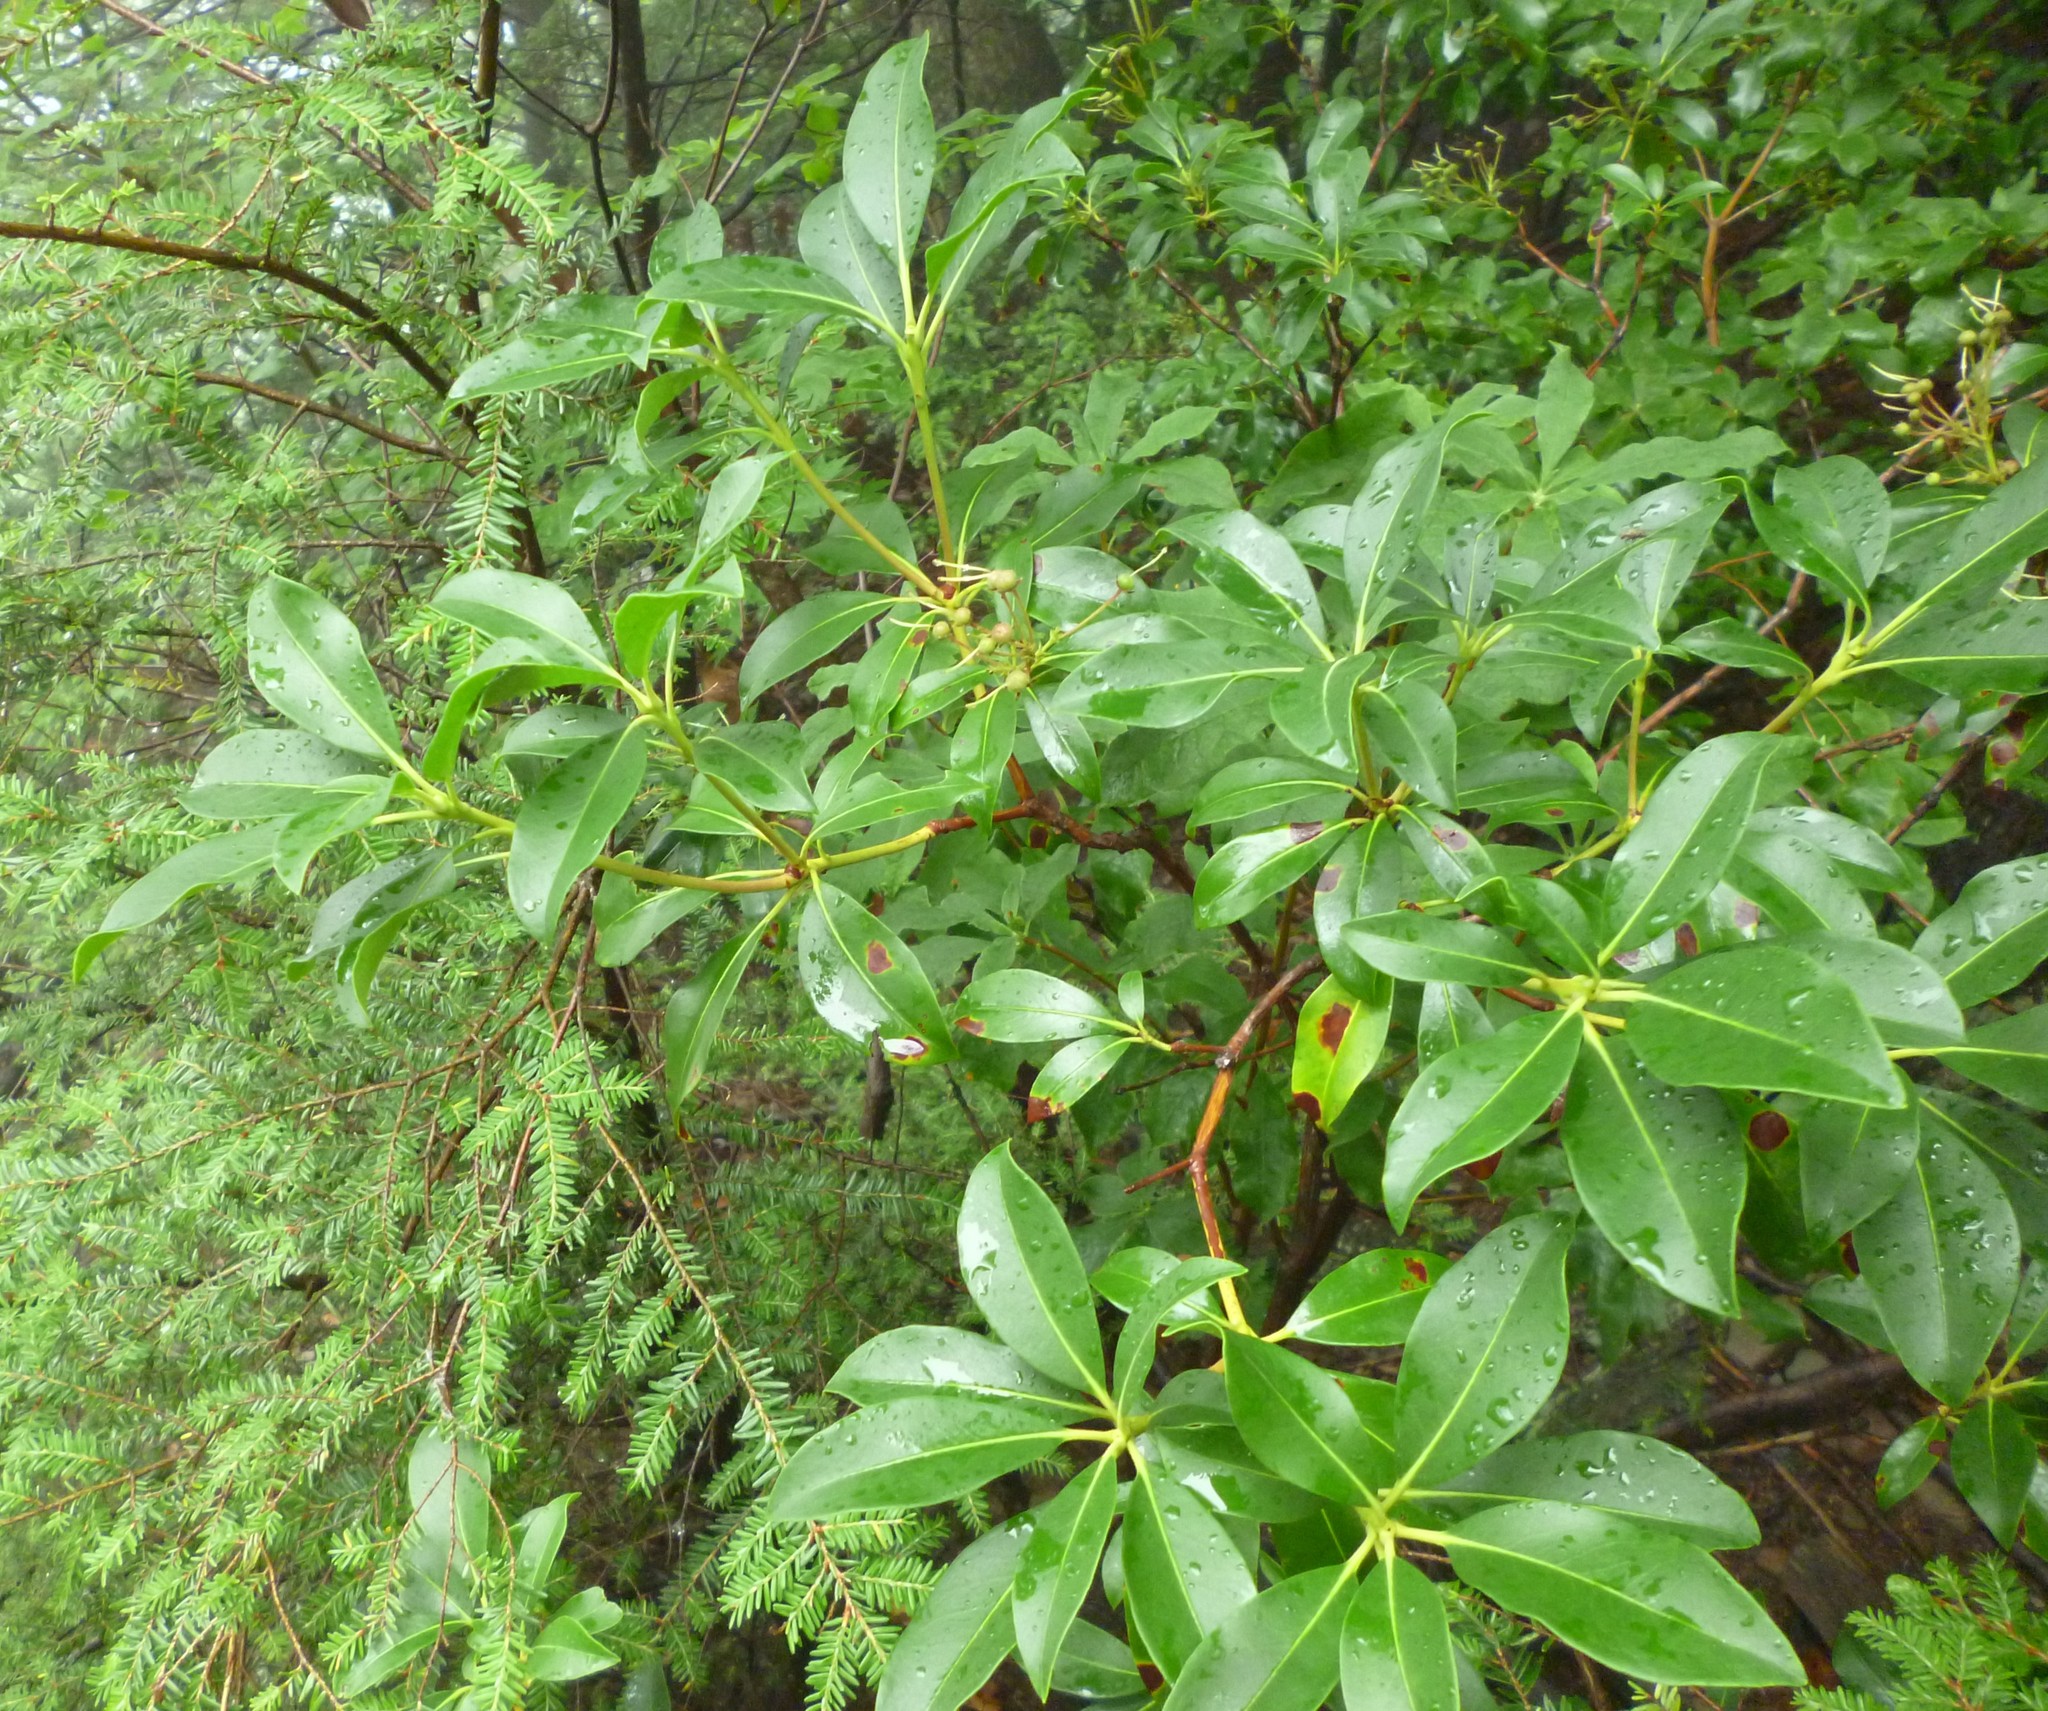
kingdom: Plantae
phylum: Tracheophyta
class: Magnoliopsida
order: Ericales
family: Ericaceae
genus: Kalmia
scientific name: Kalmia latifolia
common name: Mountain-laurel
